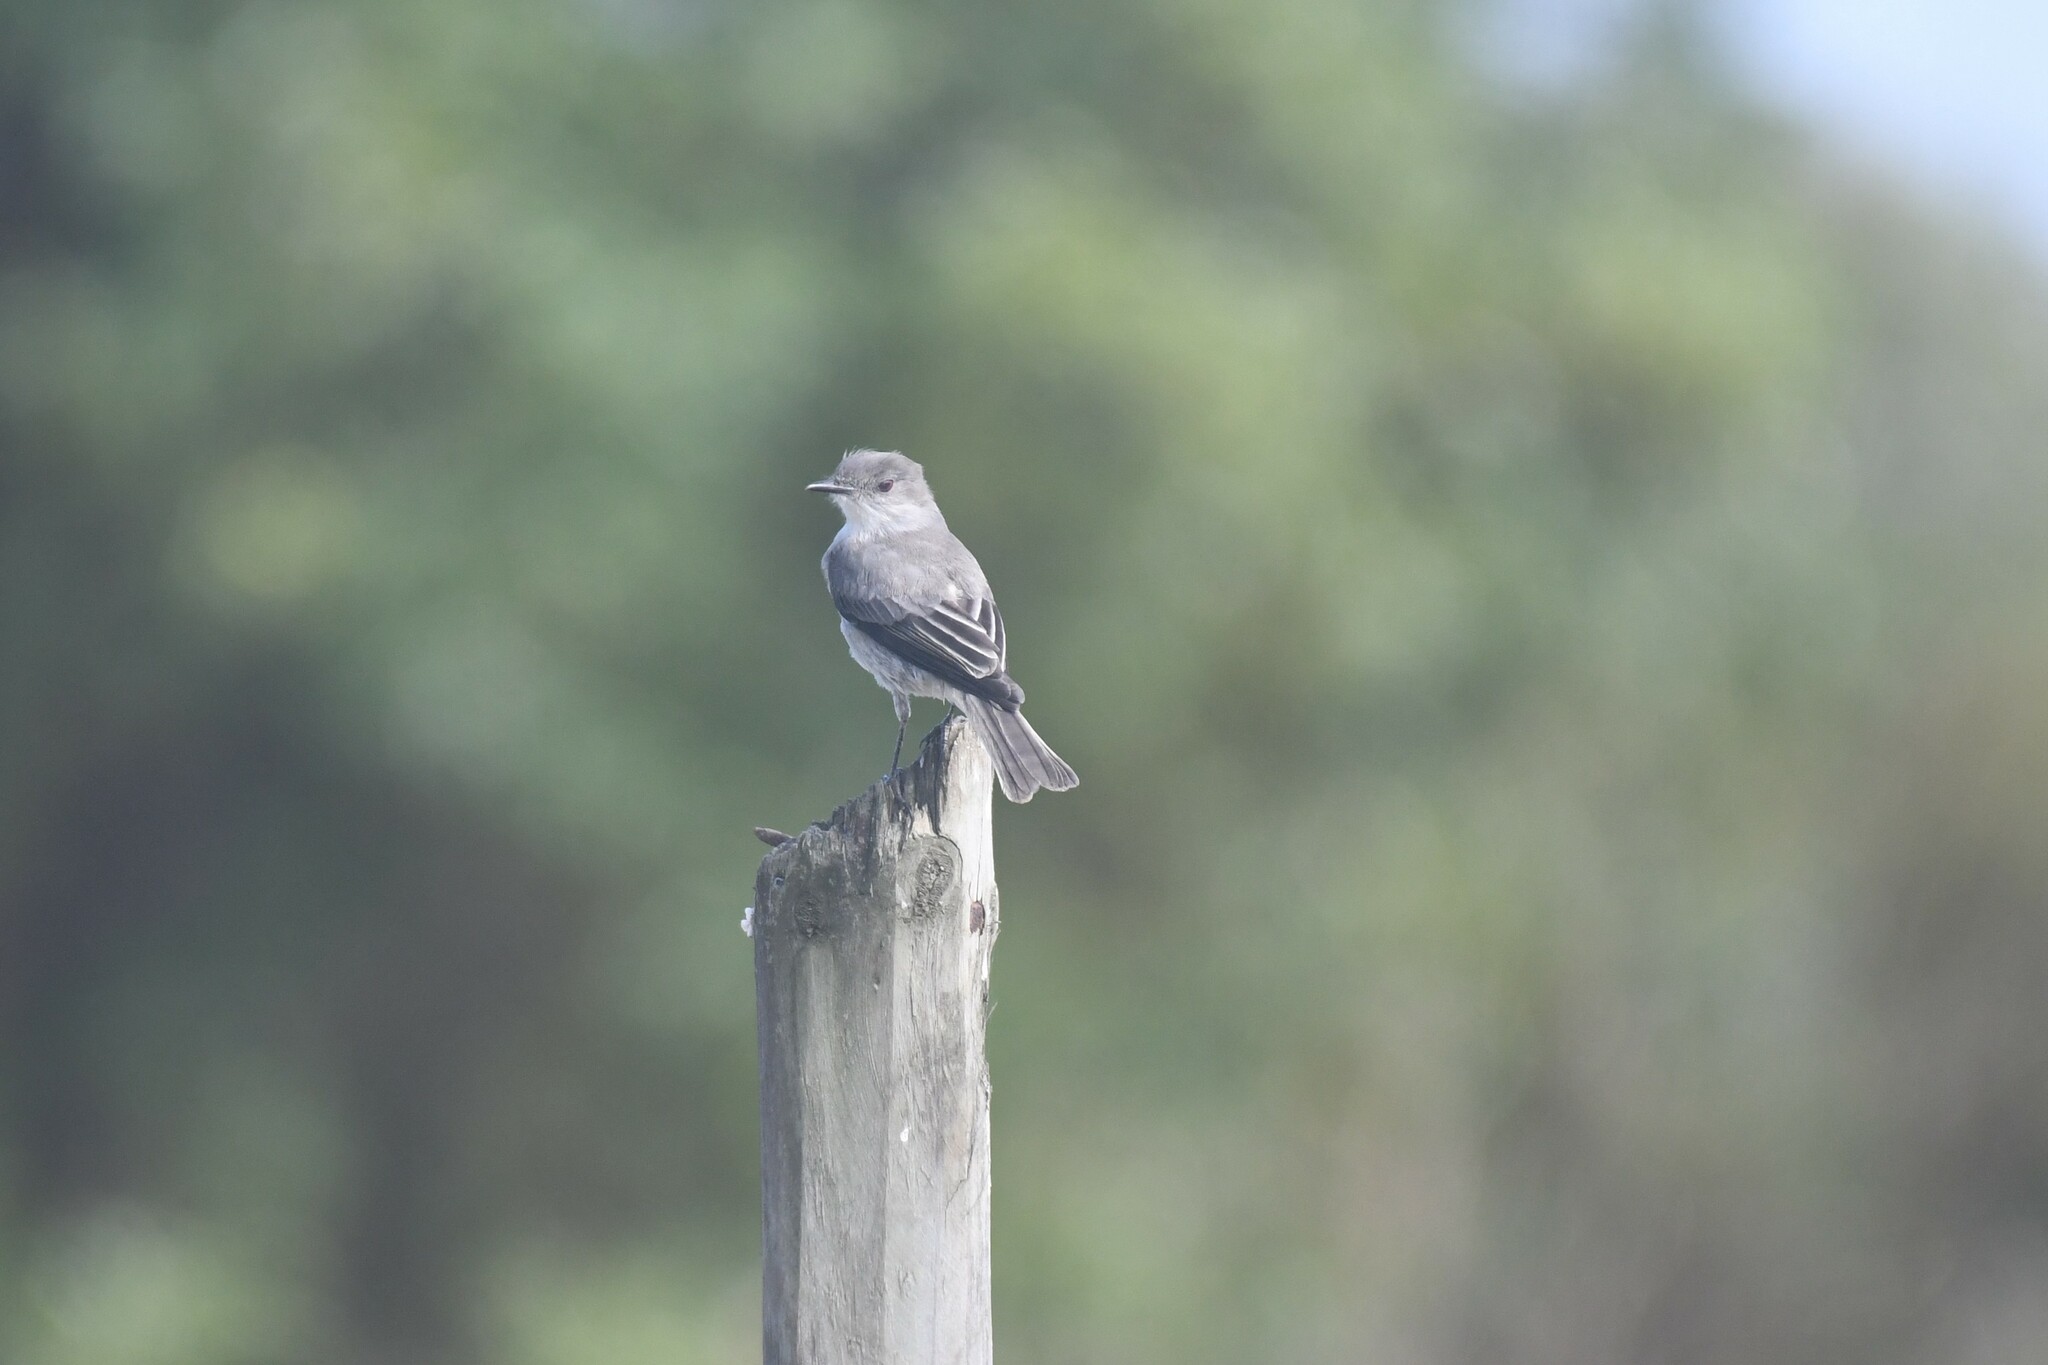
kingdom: Animalia
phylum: Chordata
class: Aves
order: Passeriformes
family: Tyrannidae
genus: Xolmis
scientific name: Xolmis pyrope
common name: Fire-eyed diucon
